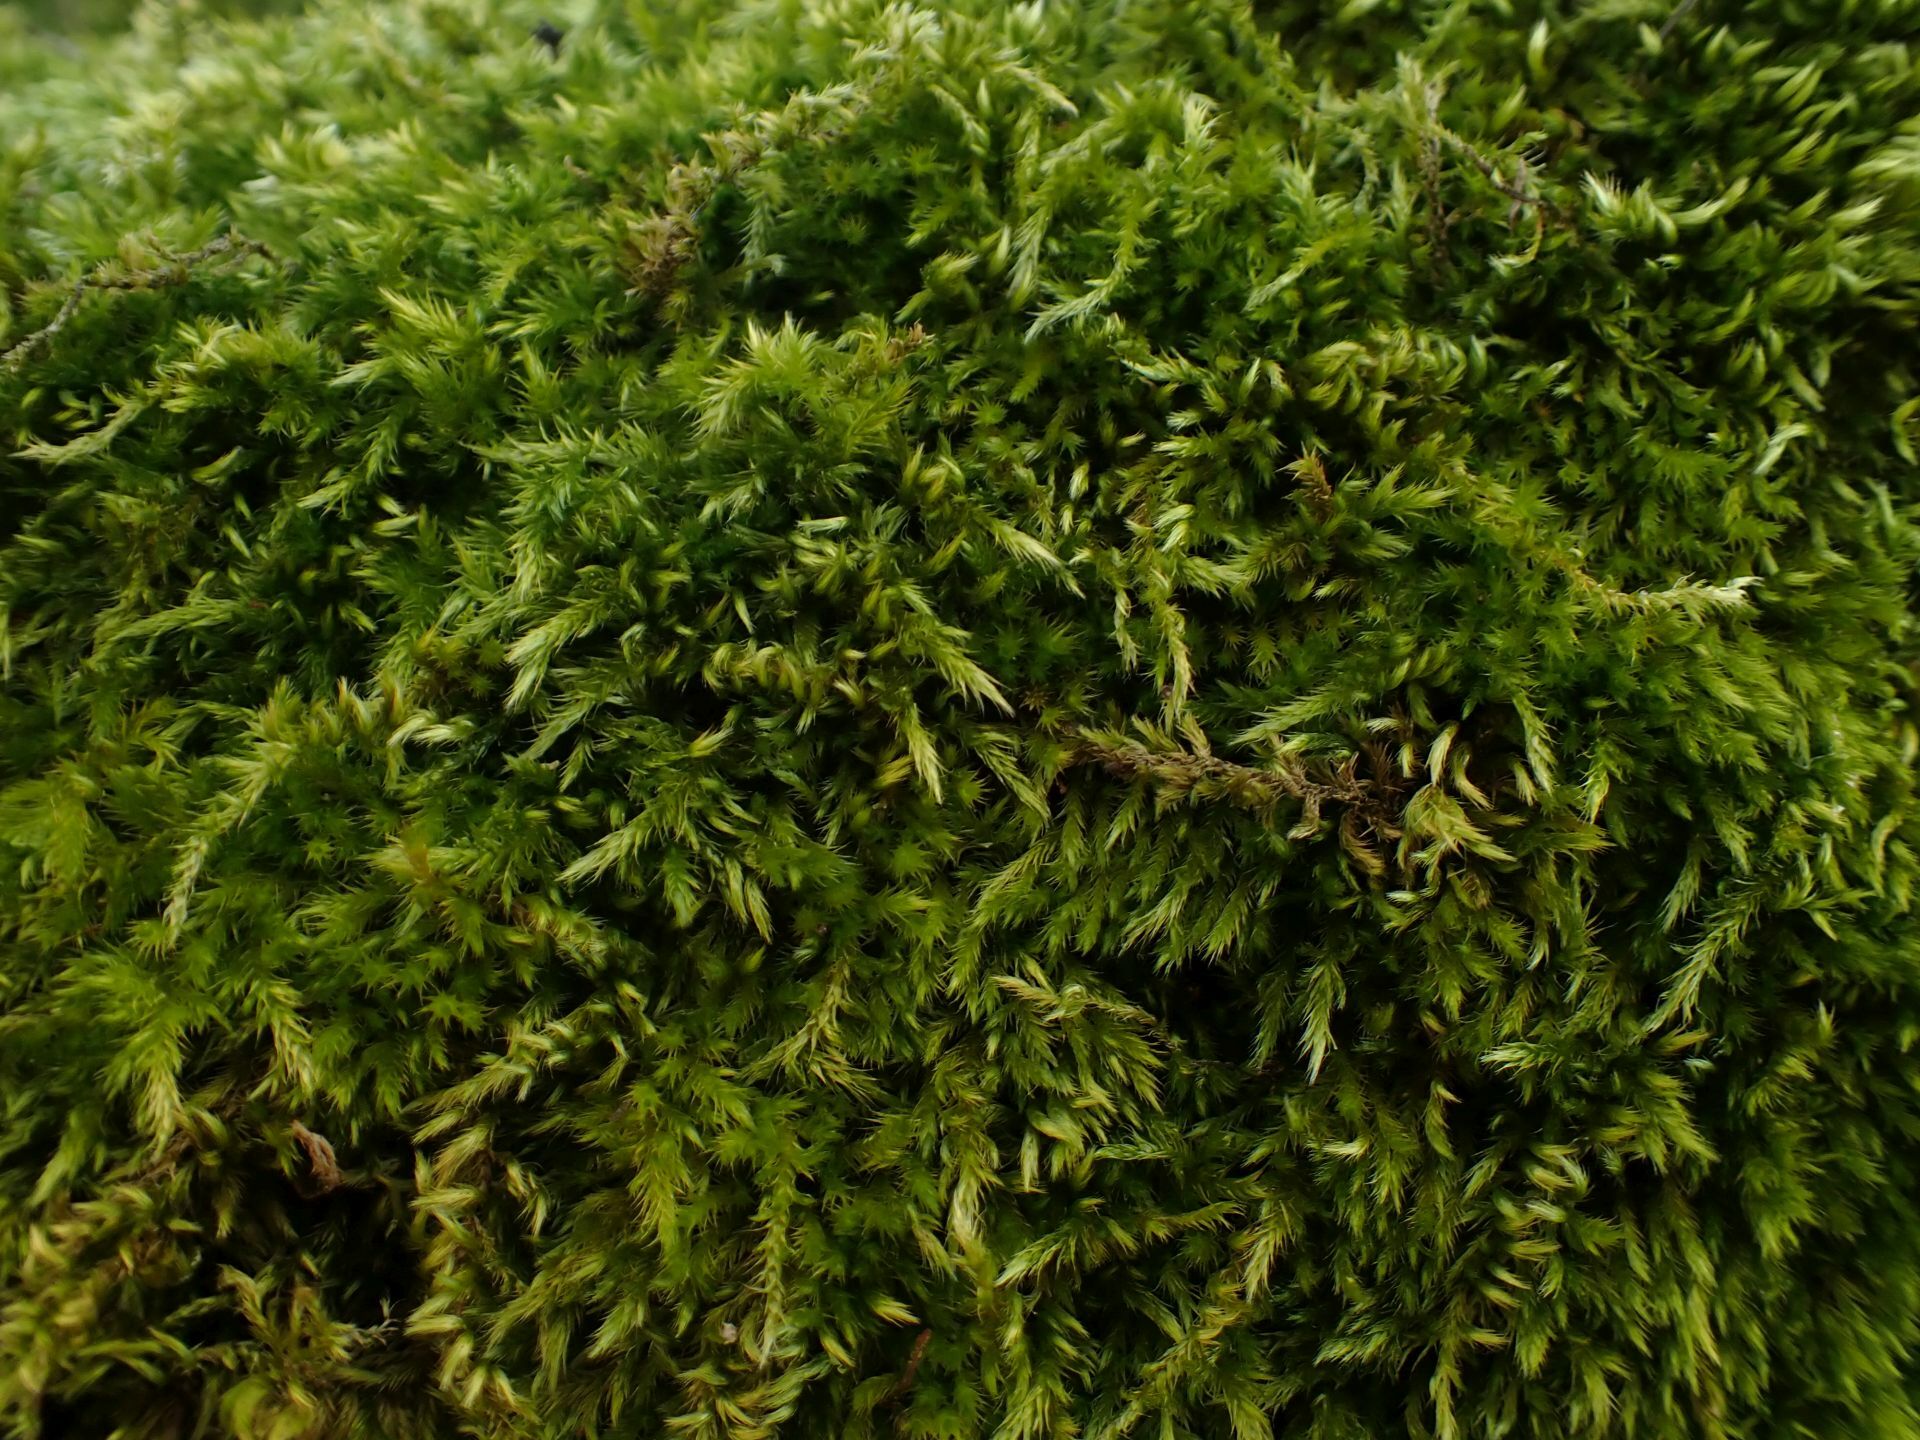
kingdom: Plantae
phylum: Bryophyta
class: Bryopsida
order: Hypnales
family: Brachytheciaceae
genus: Homalothecium
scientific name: Homalothecium sericeum
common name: Silky wall feather-moss
